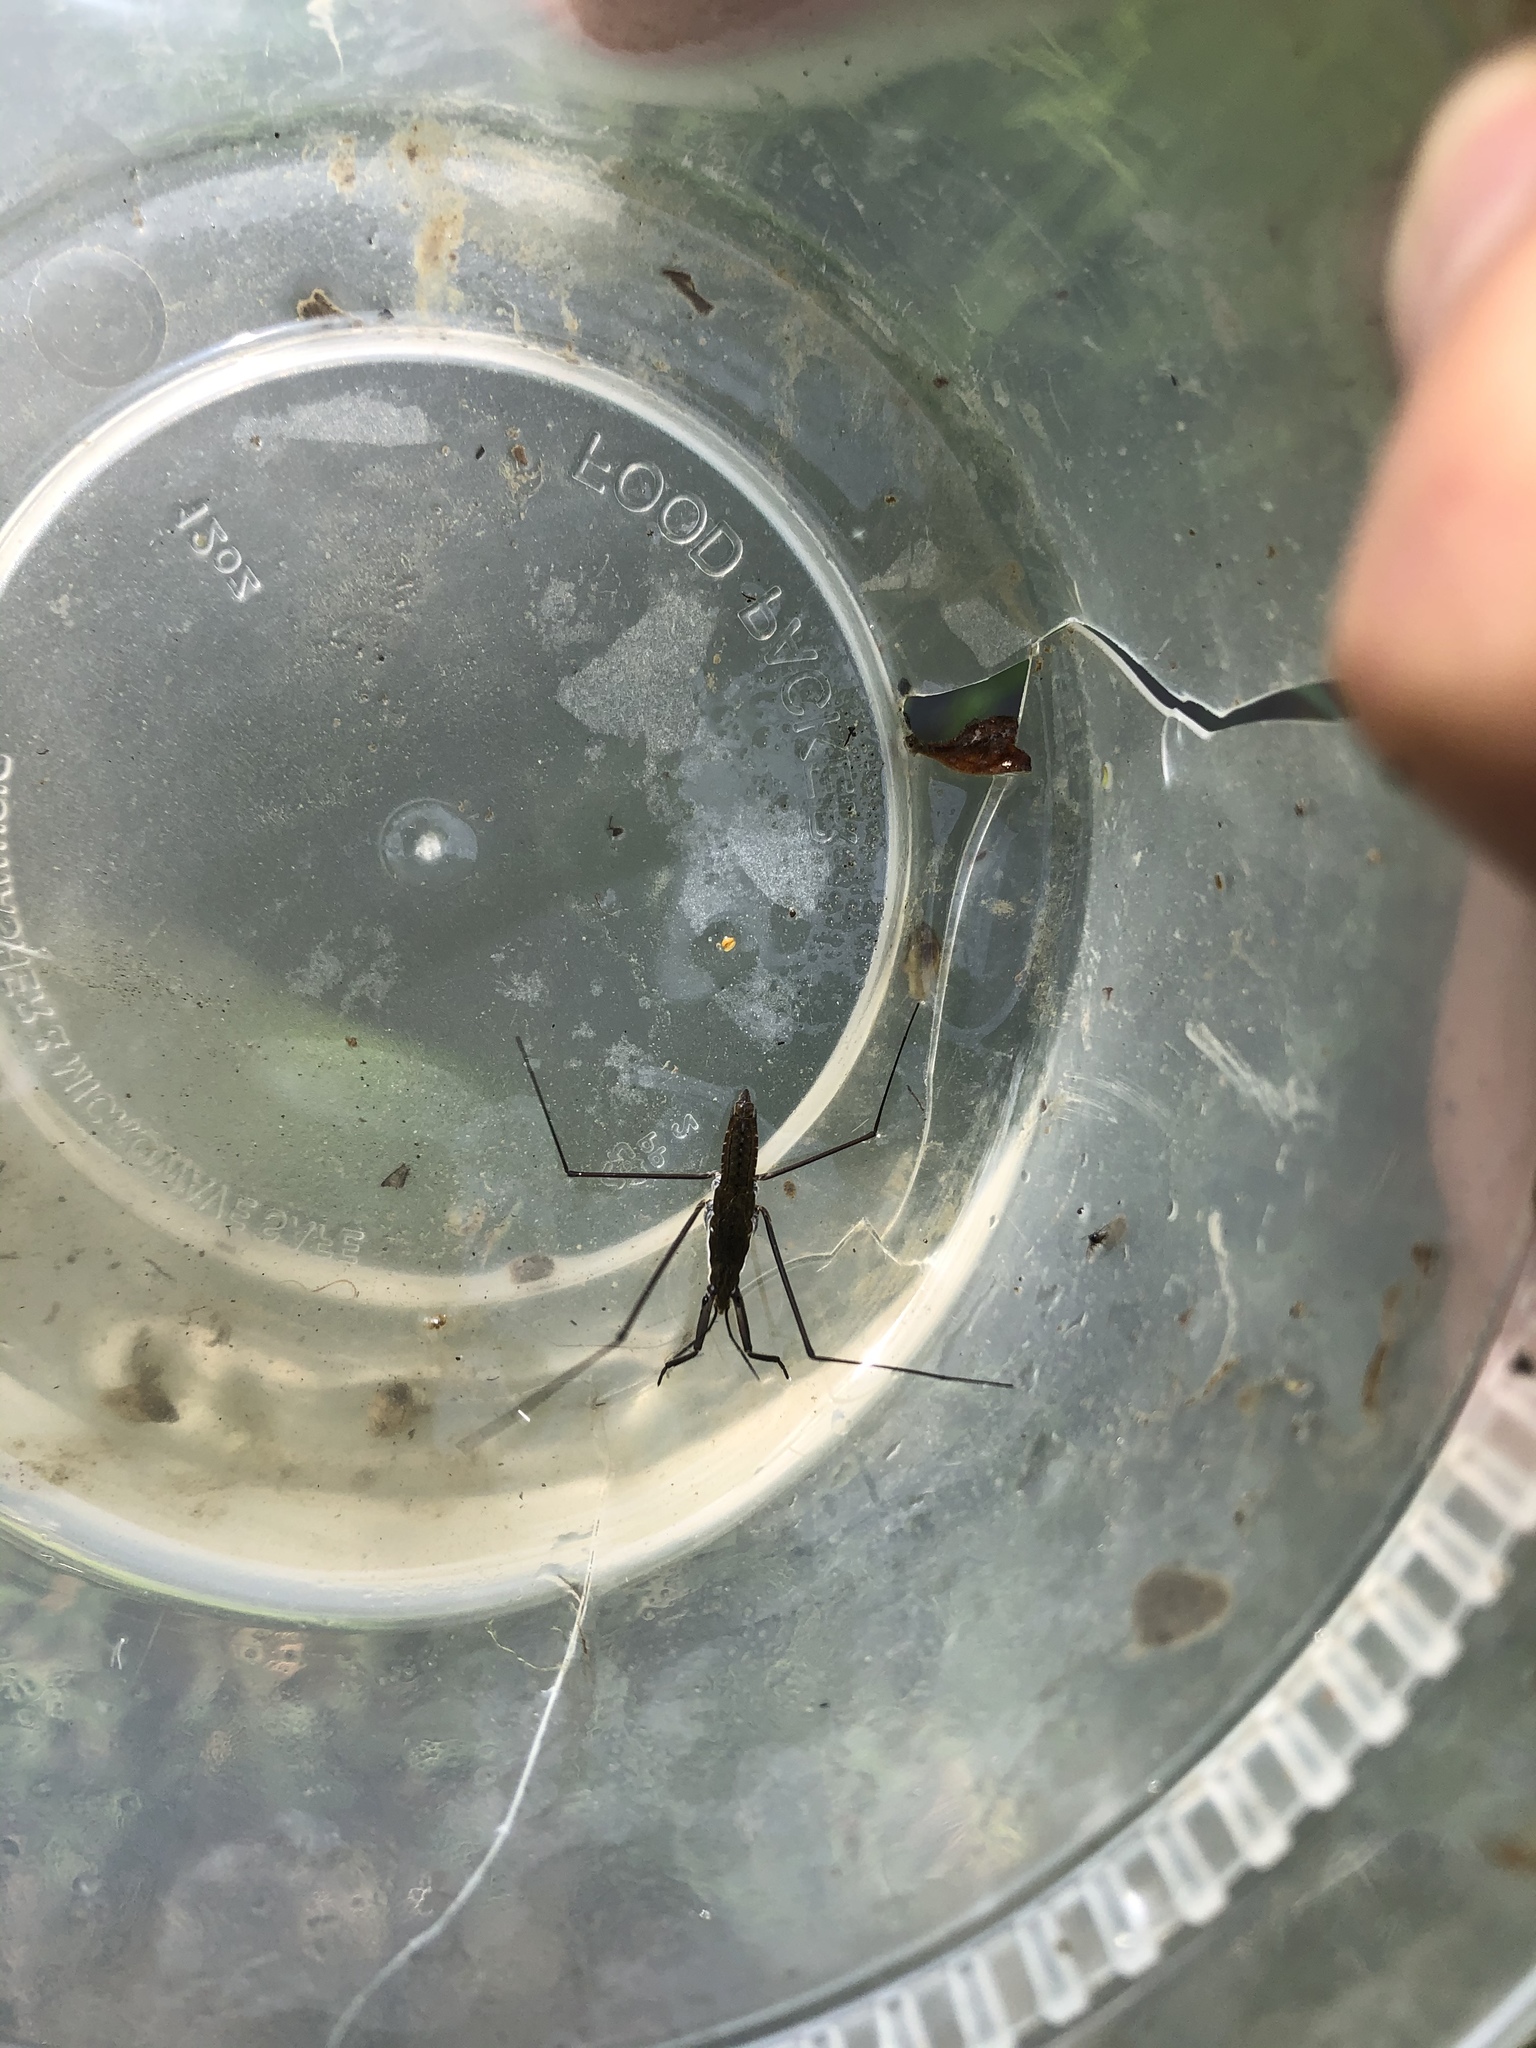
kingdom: Animalia
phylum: Arthropoda
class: Insecta
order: Hemiptera
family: Gerridae
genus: Aquarius
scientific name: Aquarius remigis
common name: Common water strider
